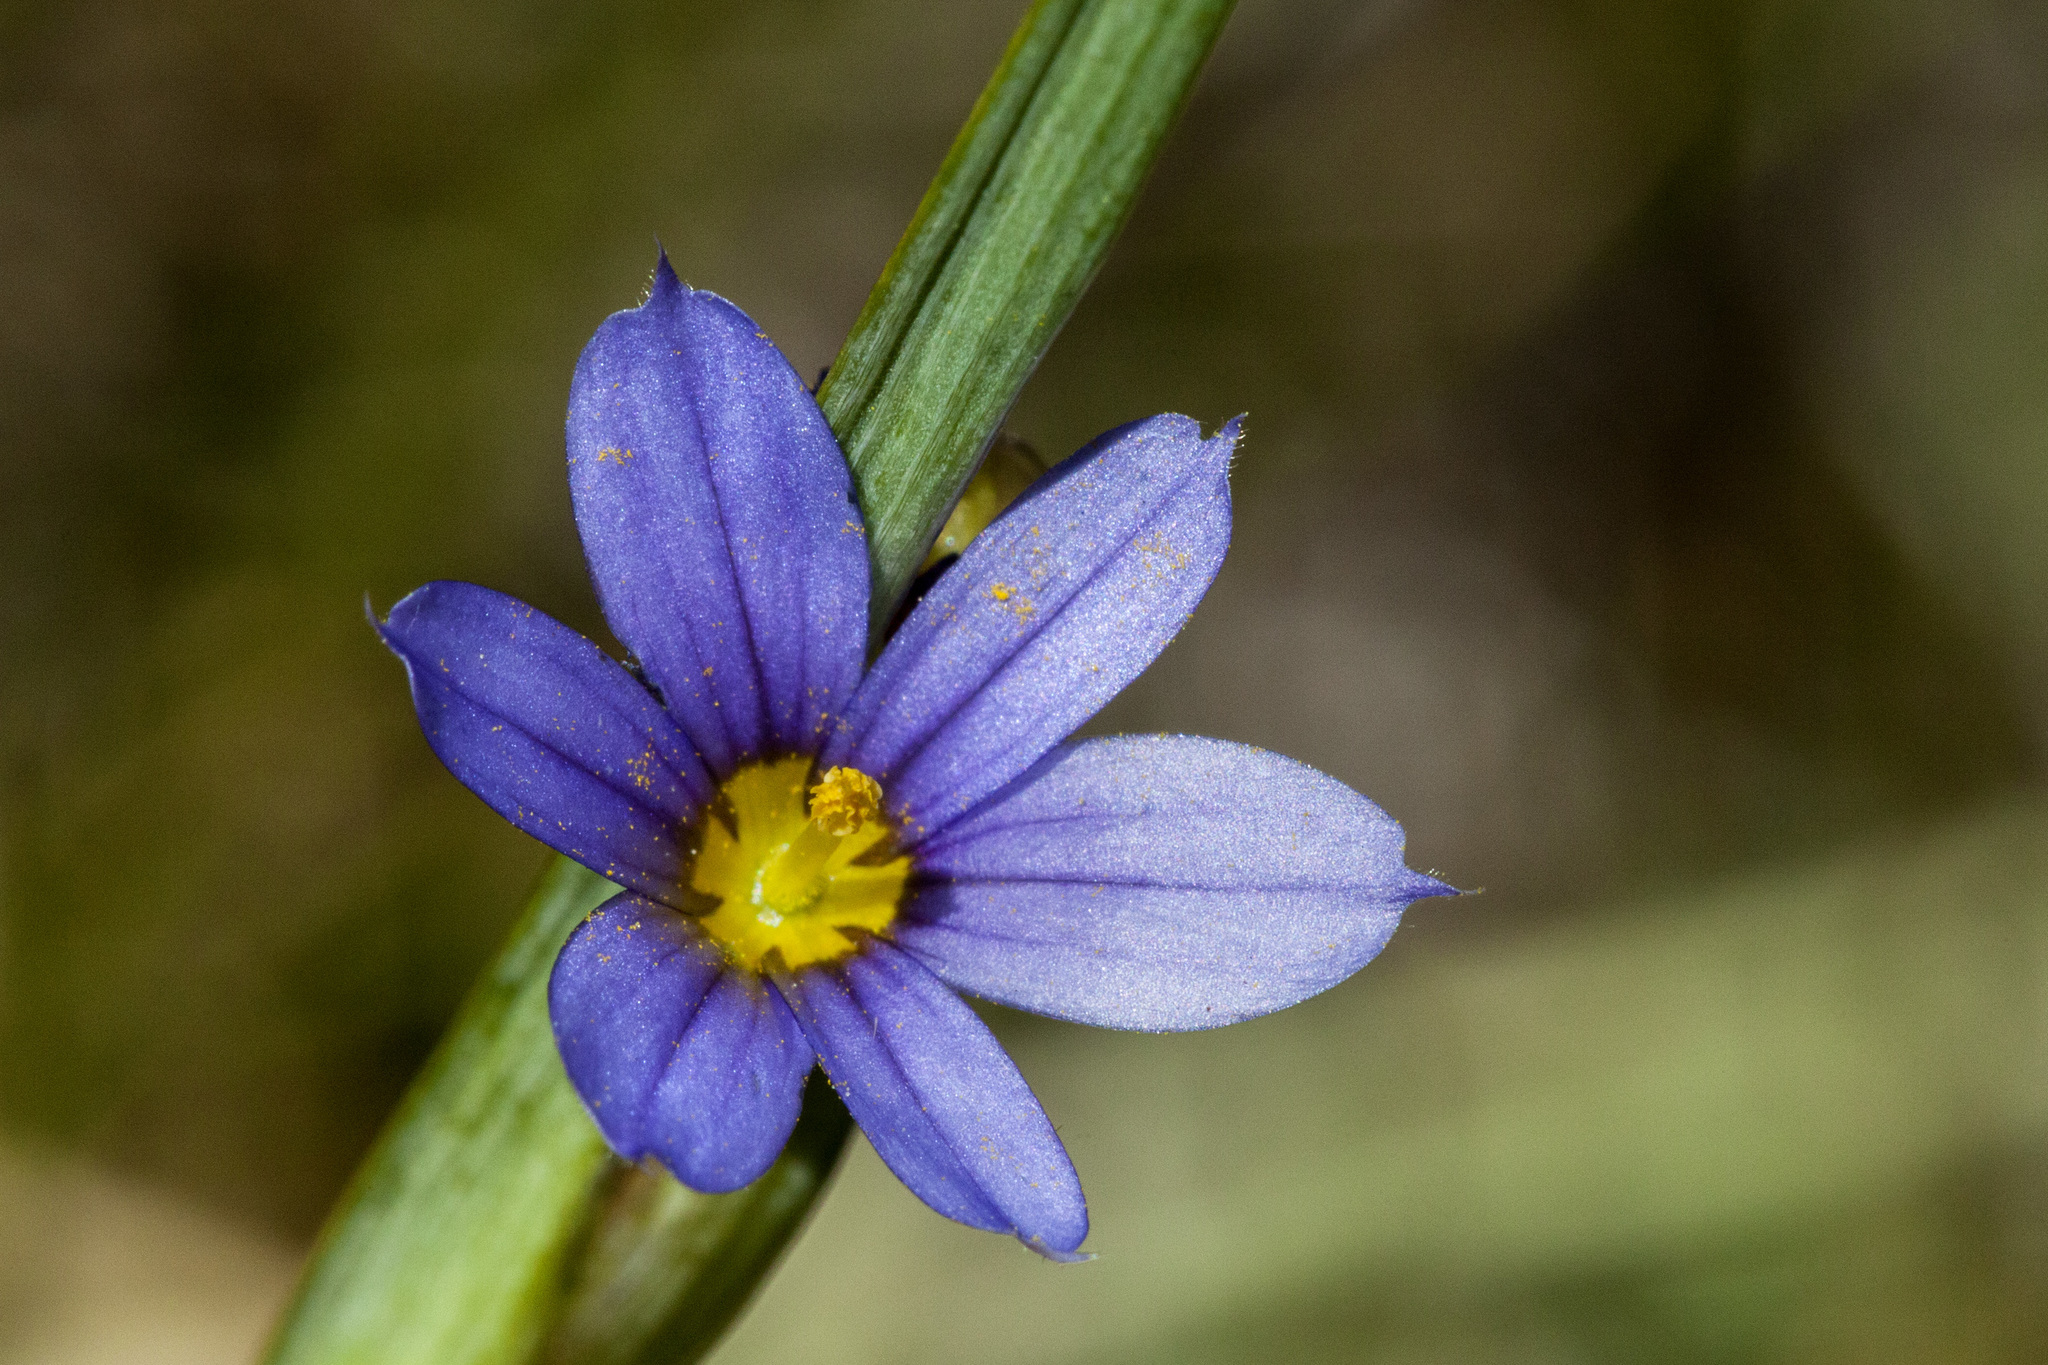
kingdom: Plantae
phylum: Tracheophyta
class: Liliopsida
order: Asparagales
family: Iridaceae
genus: Sisyrinchium
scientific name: Sisyrinchium montanum
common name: American blue-eyed-grass
